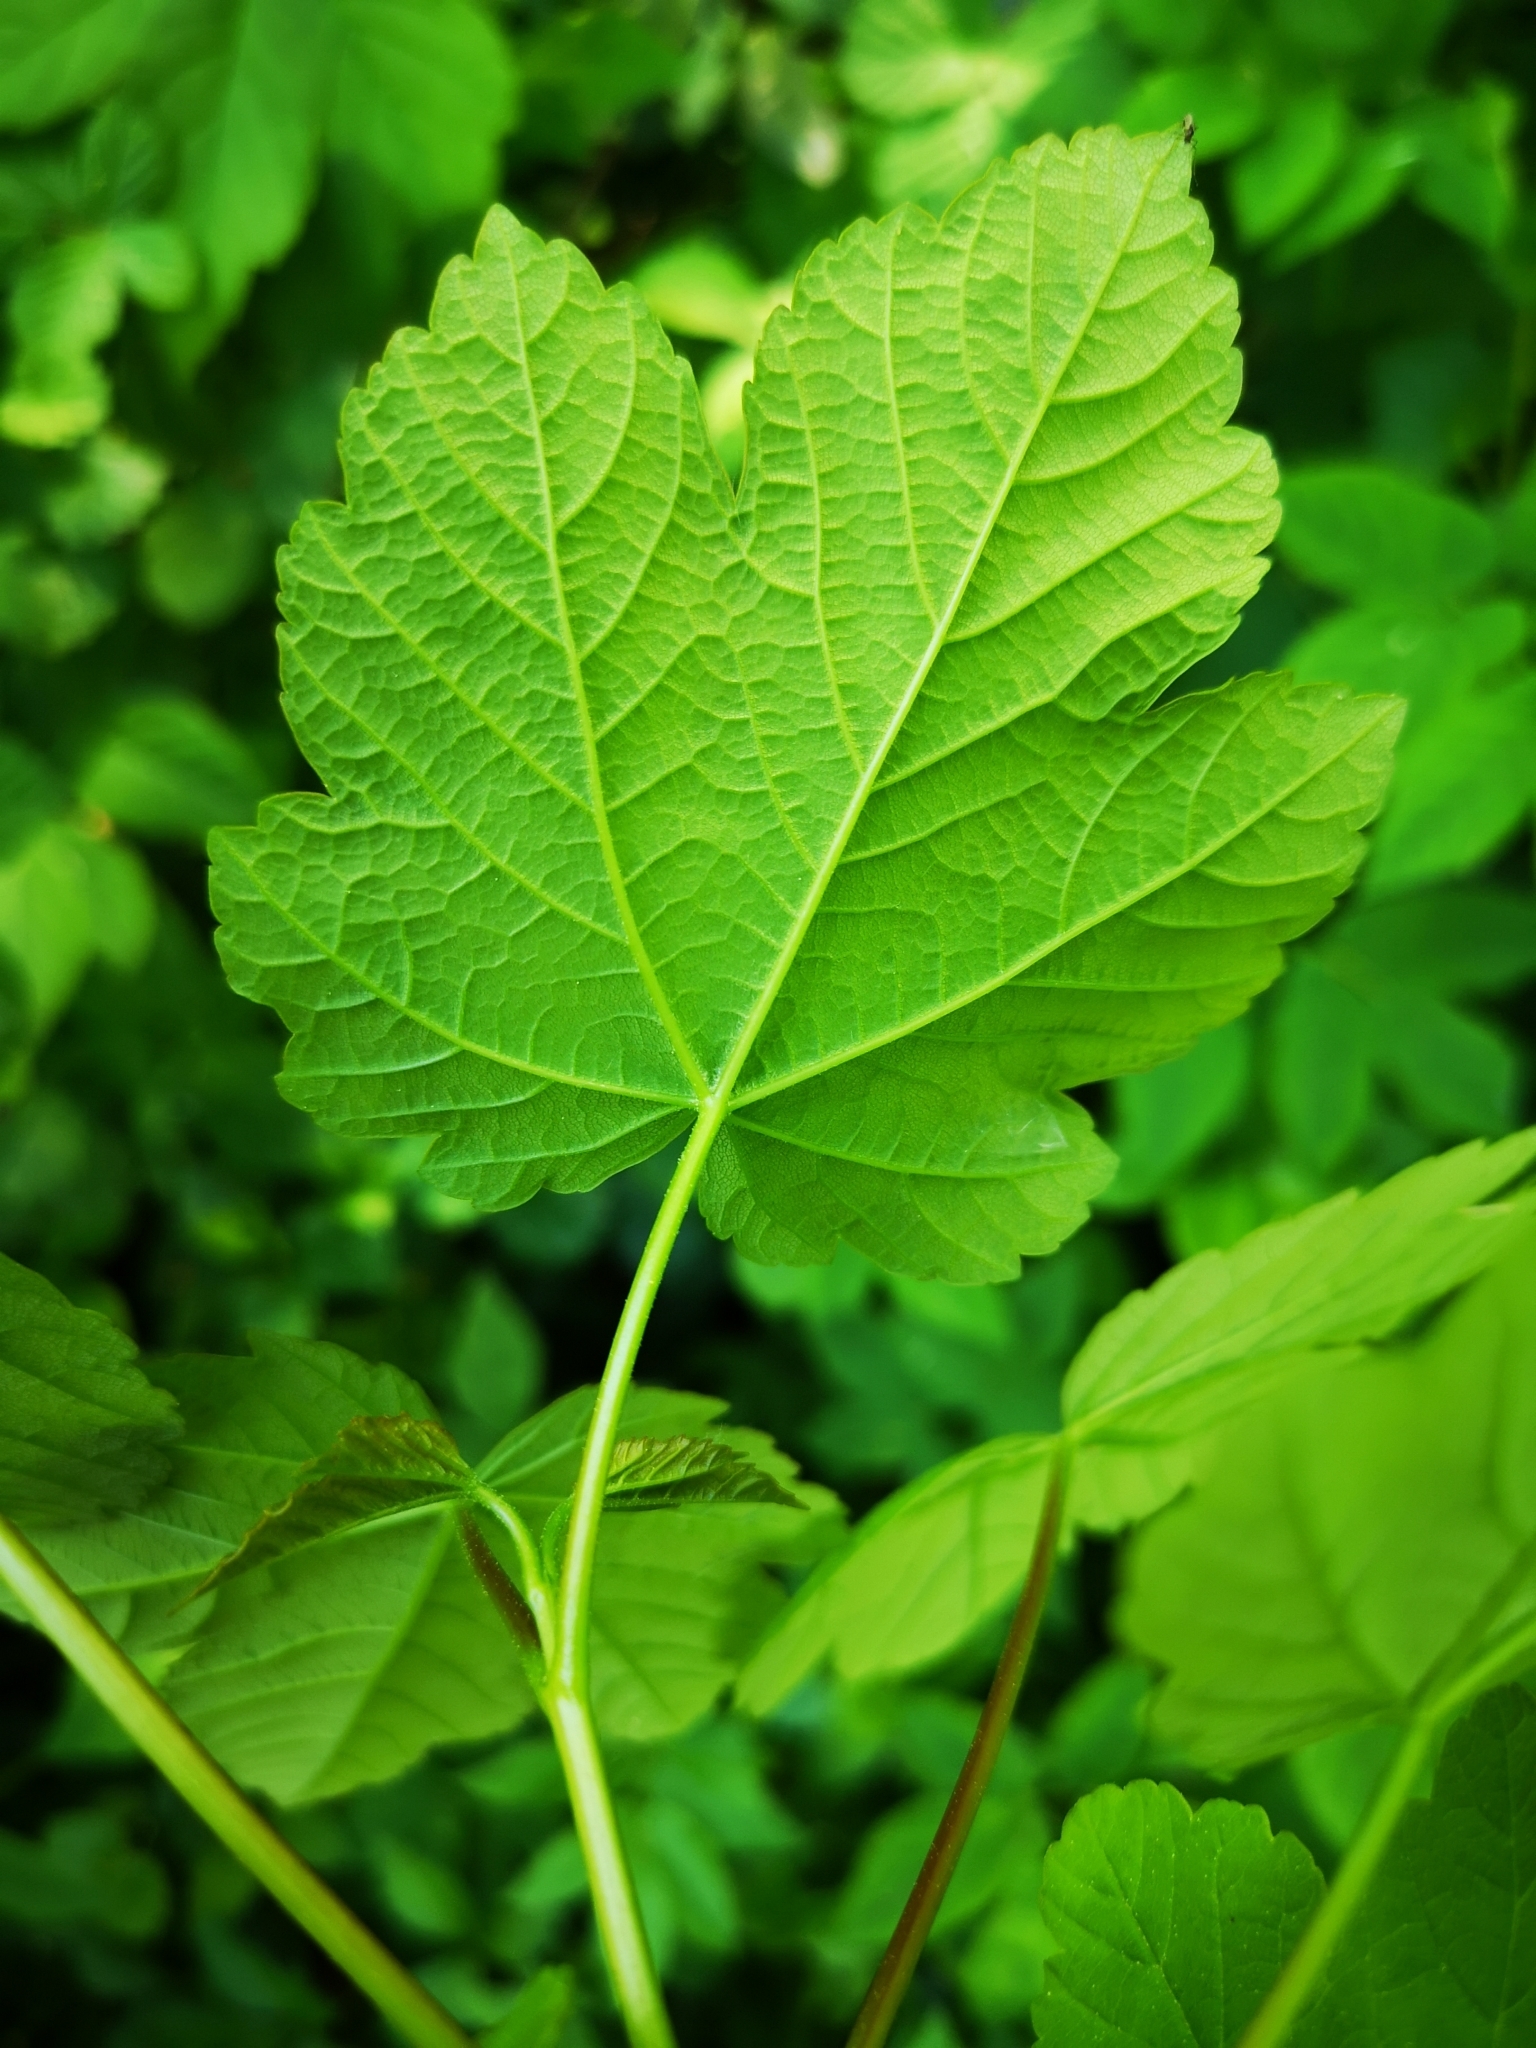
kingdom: Plantae
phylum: Tracheophyta
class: Magnoliopsida
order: Sapindales
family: Sapindaceae
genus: Acer
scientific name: Acer pseudoplatanus
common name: Sycamore
